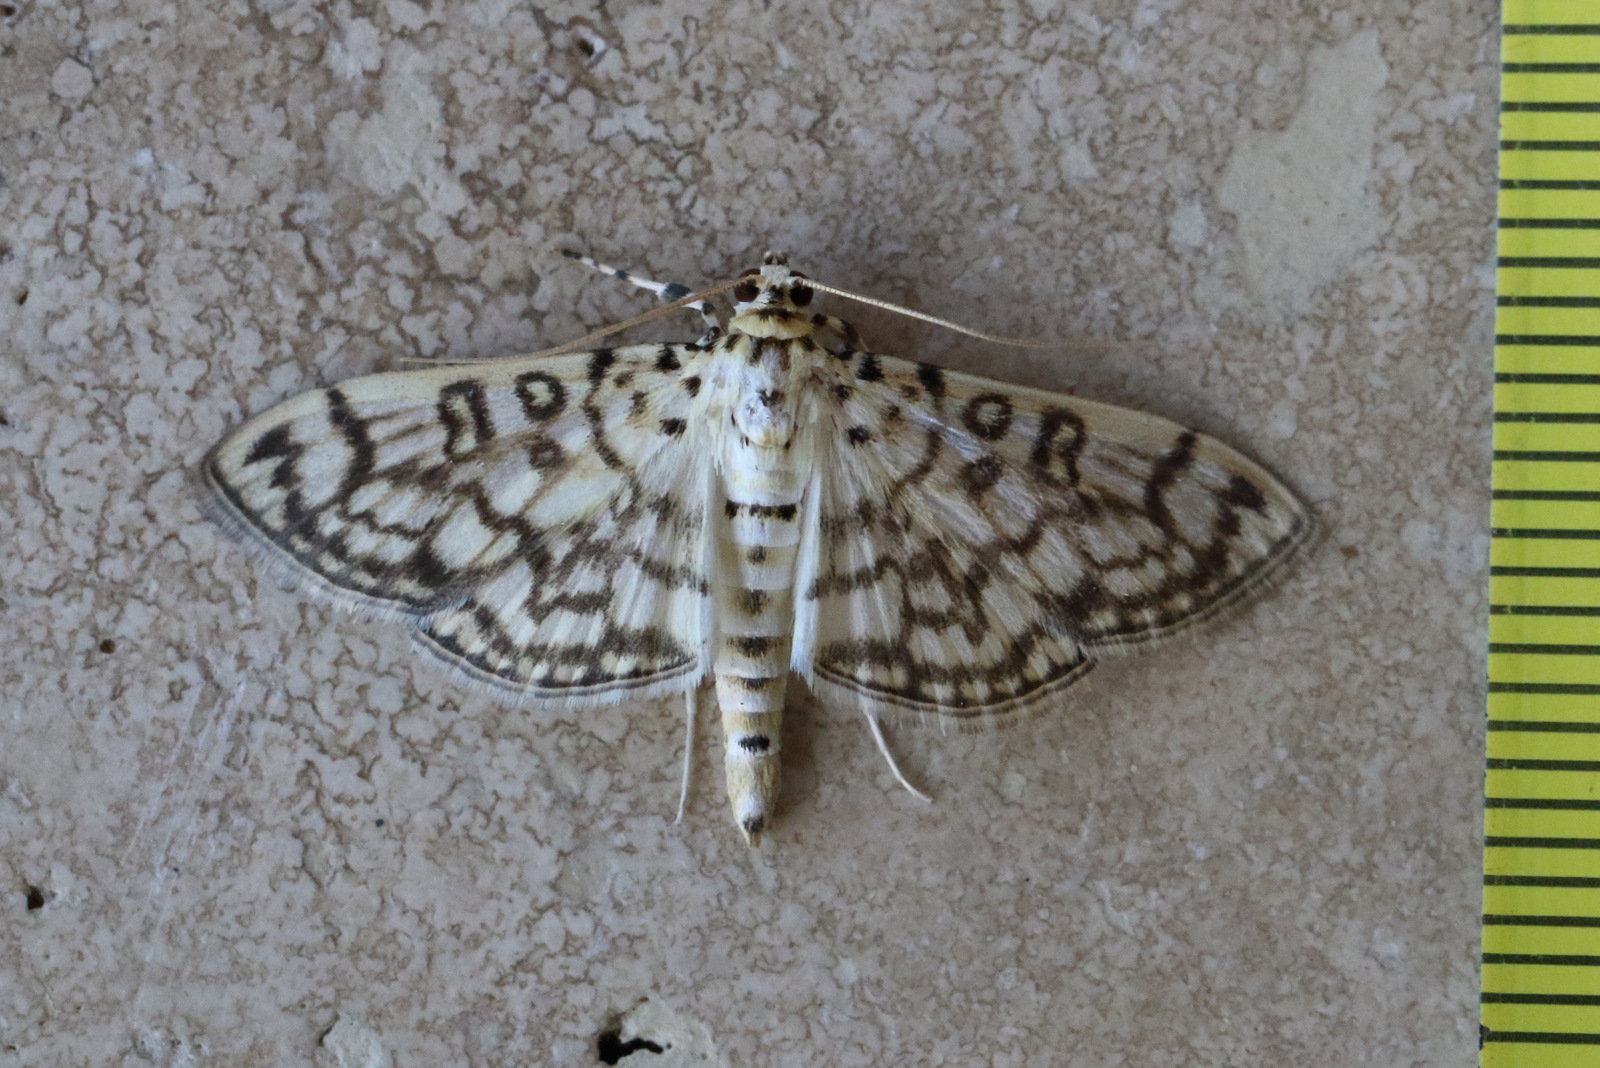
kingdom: Animalia
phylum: Arthropoda
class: Insecta
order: Lepidoptera
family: Crambidae
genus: Haritalodes
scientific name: Haritalodes derogata
